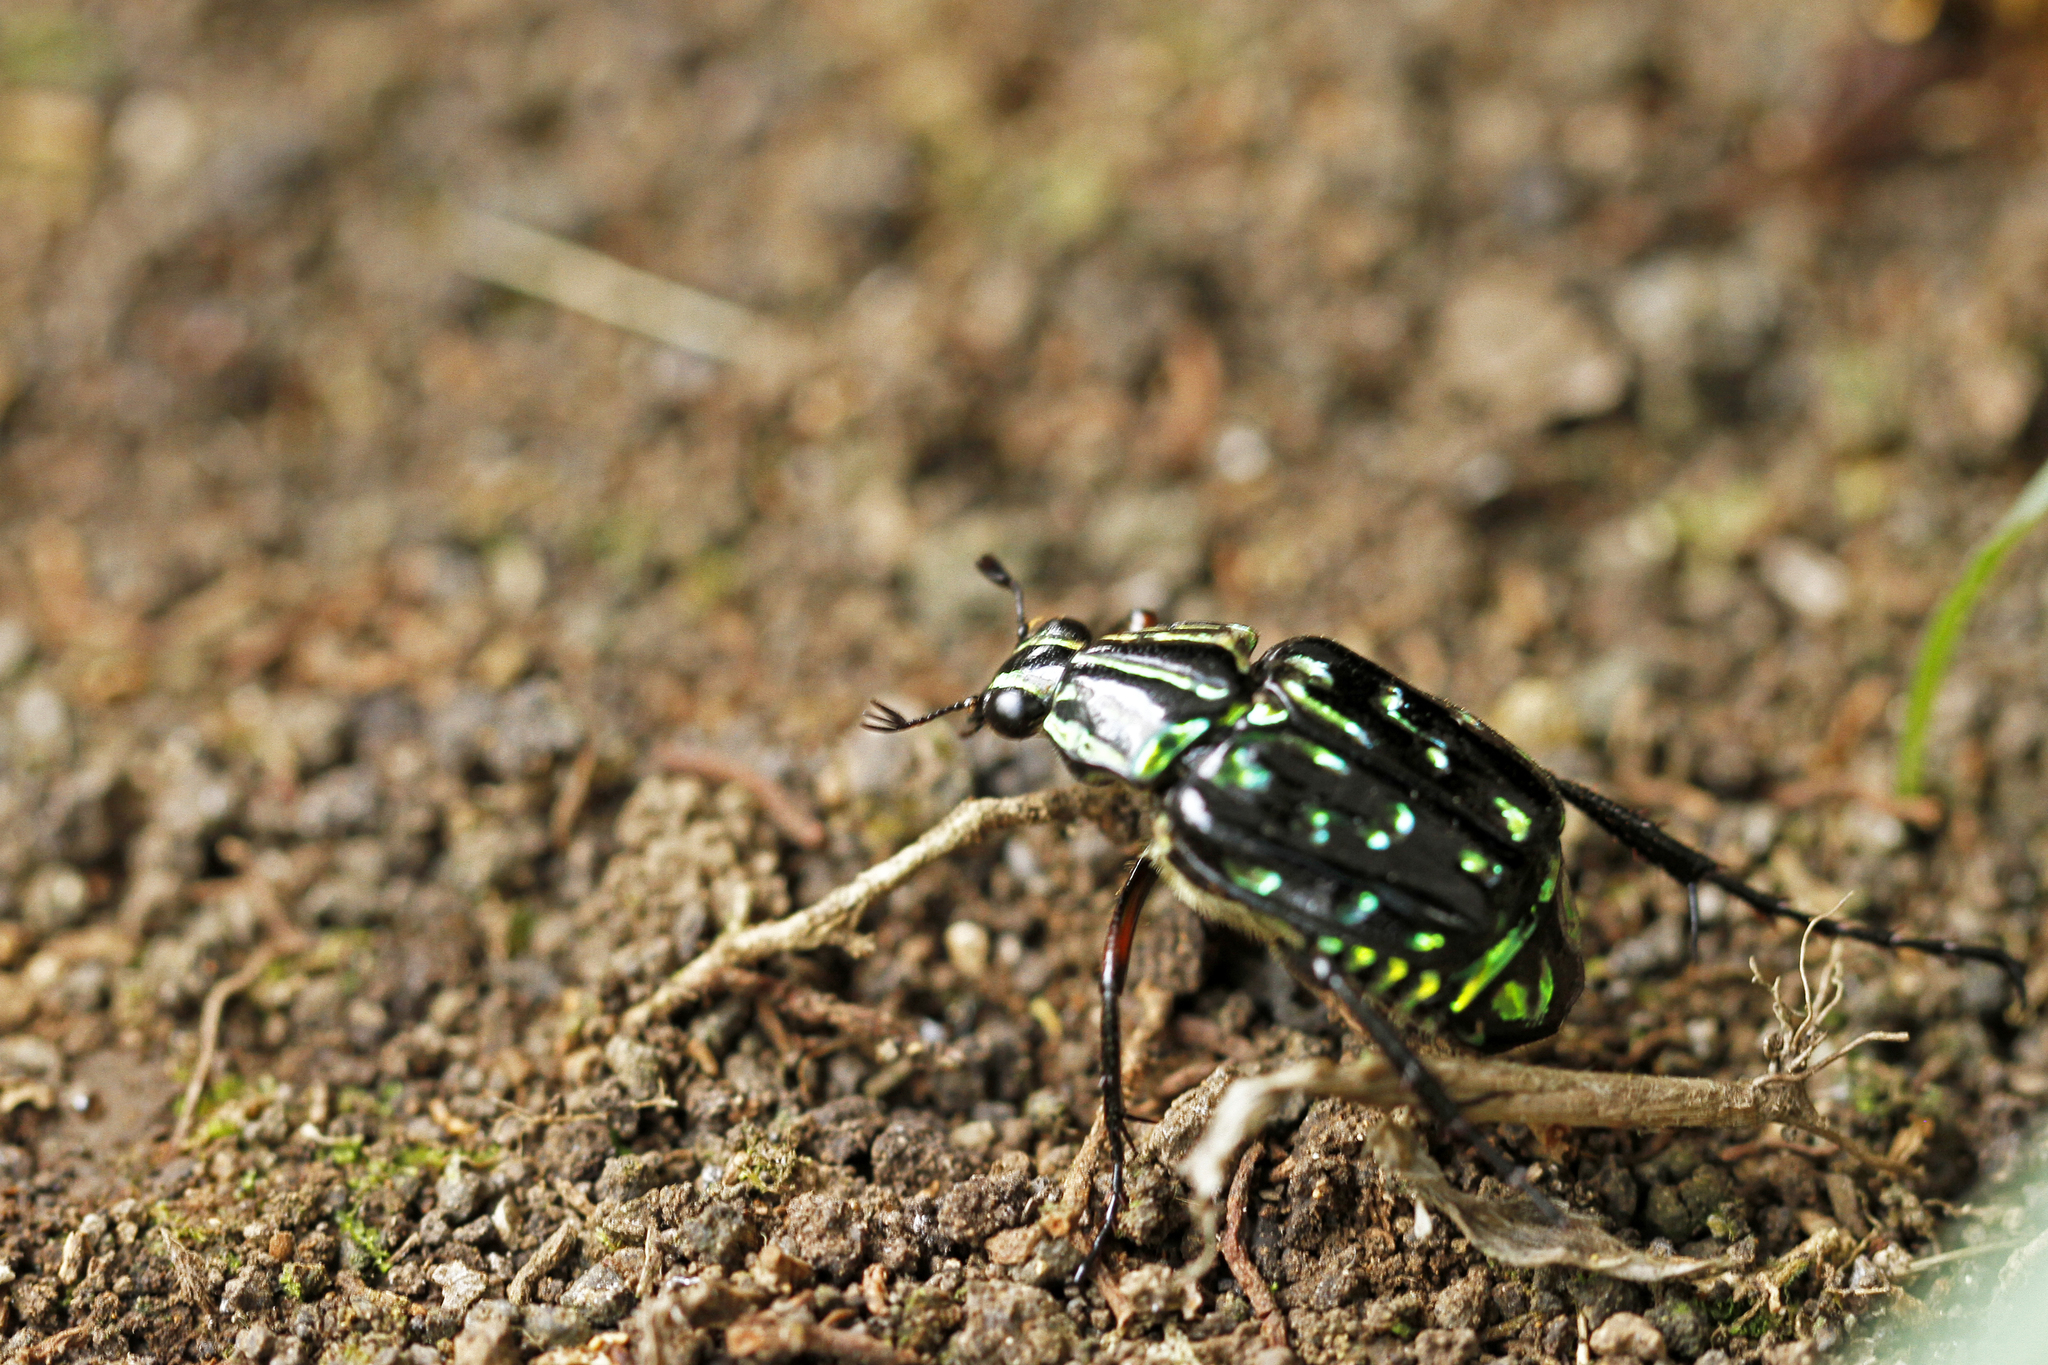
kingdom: Animalia
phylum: Arthropoda
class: Insecta
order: Coleoptera
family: Scarabaeidae
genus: Dialithus
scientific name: Dialithus magnificus
